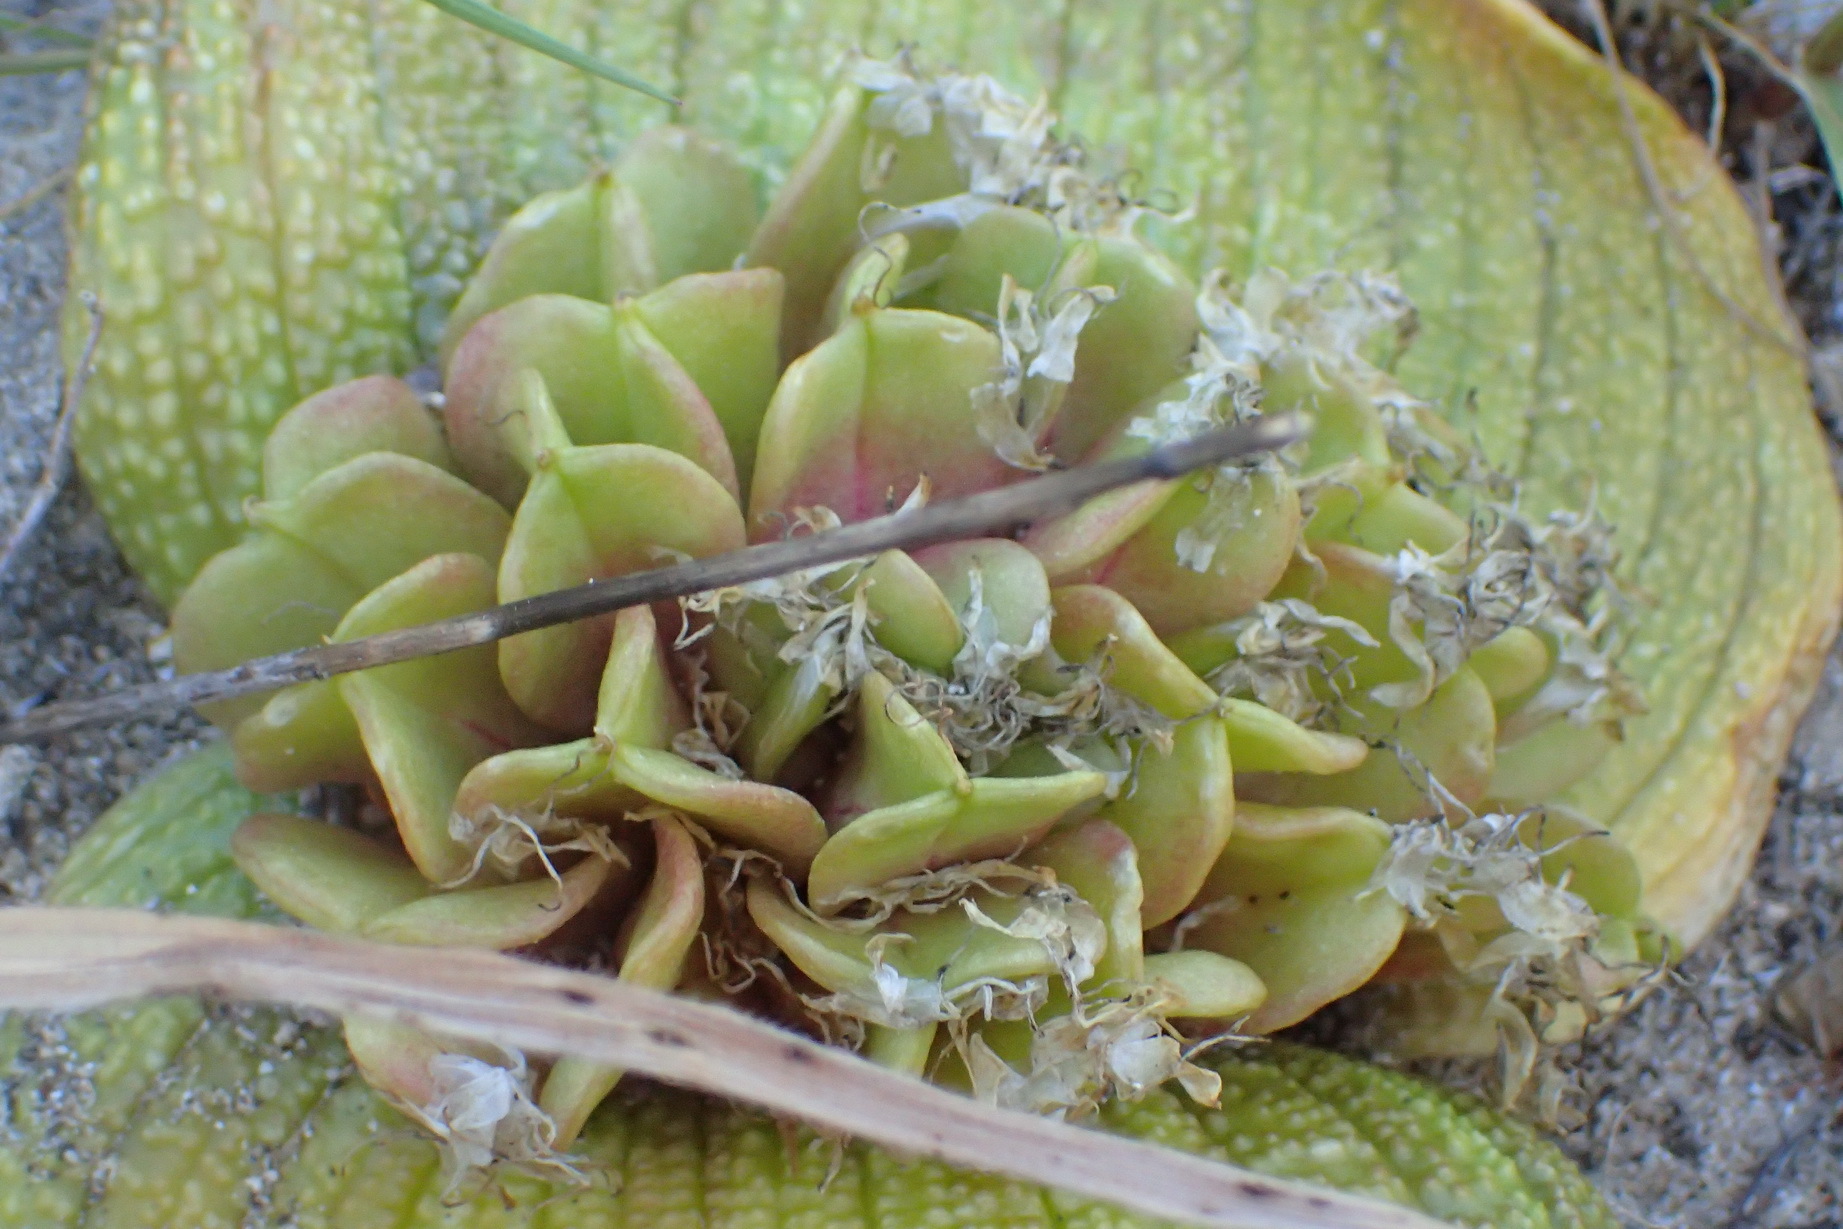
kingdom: Plantae
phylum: Tracheophyta
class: Liliopsida
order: Asparagales
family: Asparagaceae
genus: Massonia
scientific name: Massonia longipes
